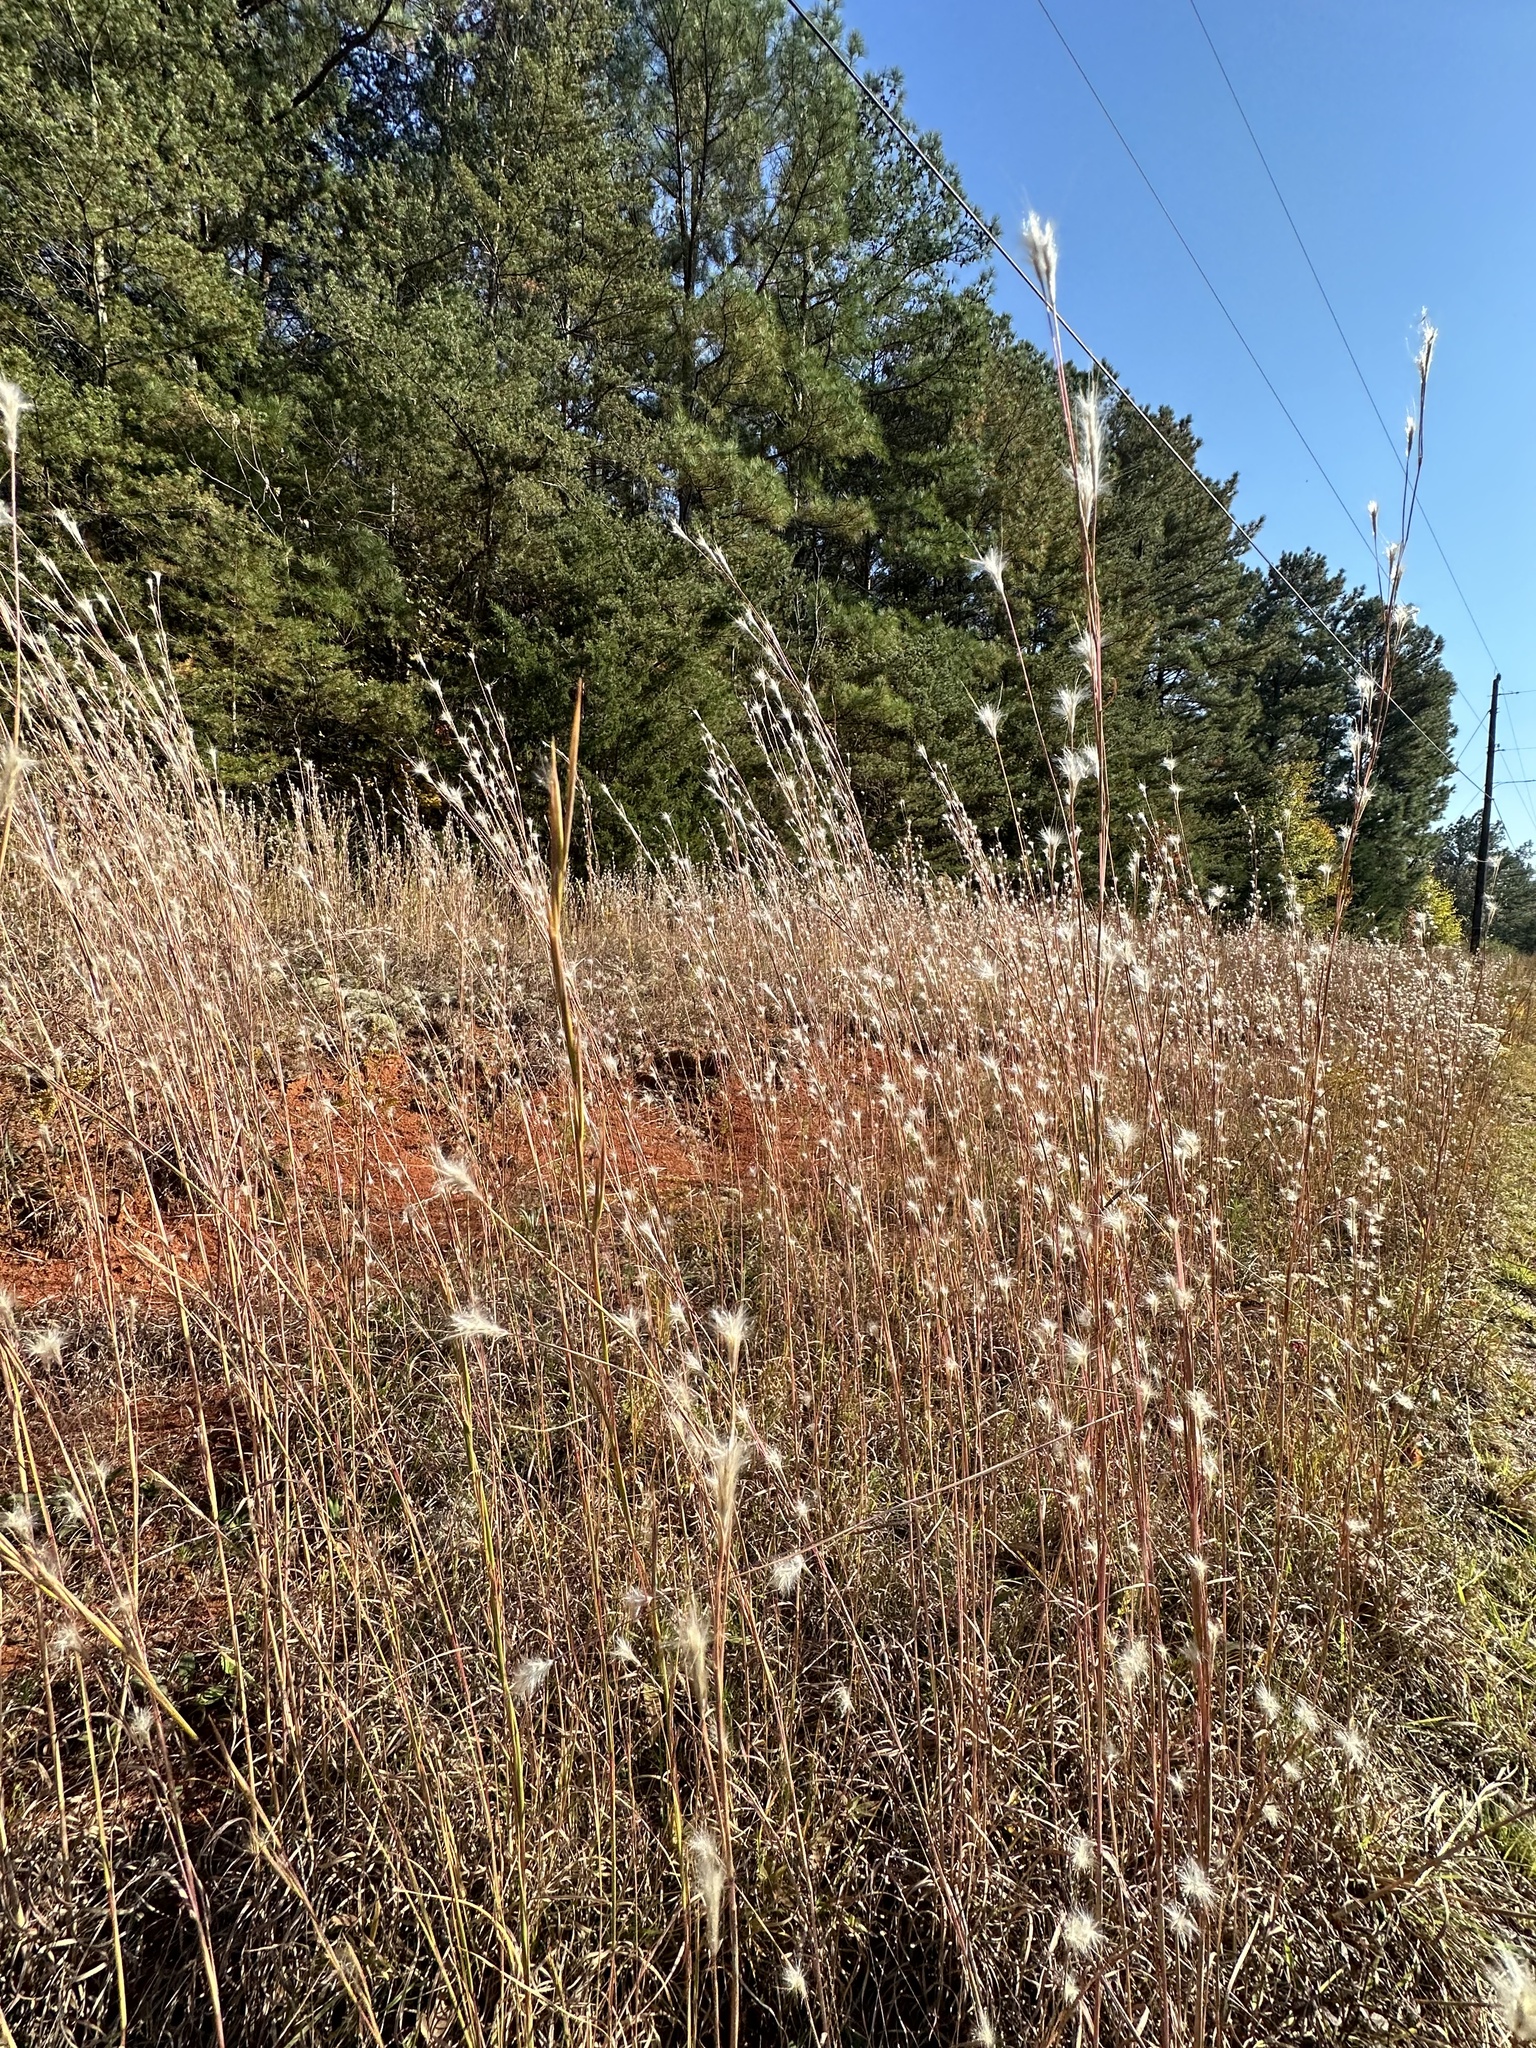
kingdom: Plantae
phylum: Tracheophyta
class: Liliopsida
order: Poales
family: Poaceae
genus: Andropogon
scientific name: Andropogon ternarius
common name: Split bluestem
